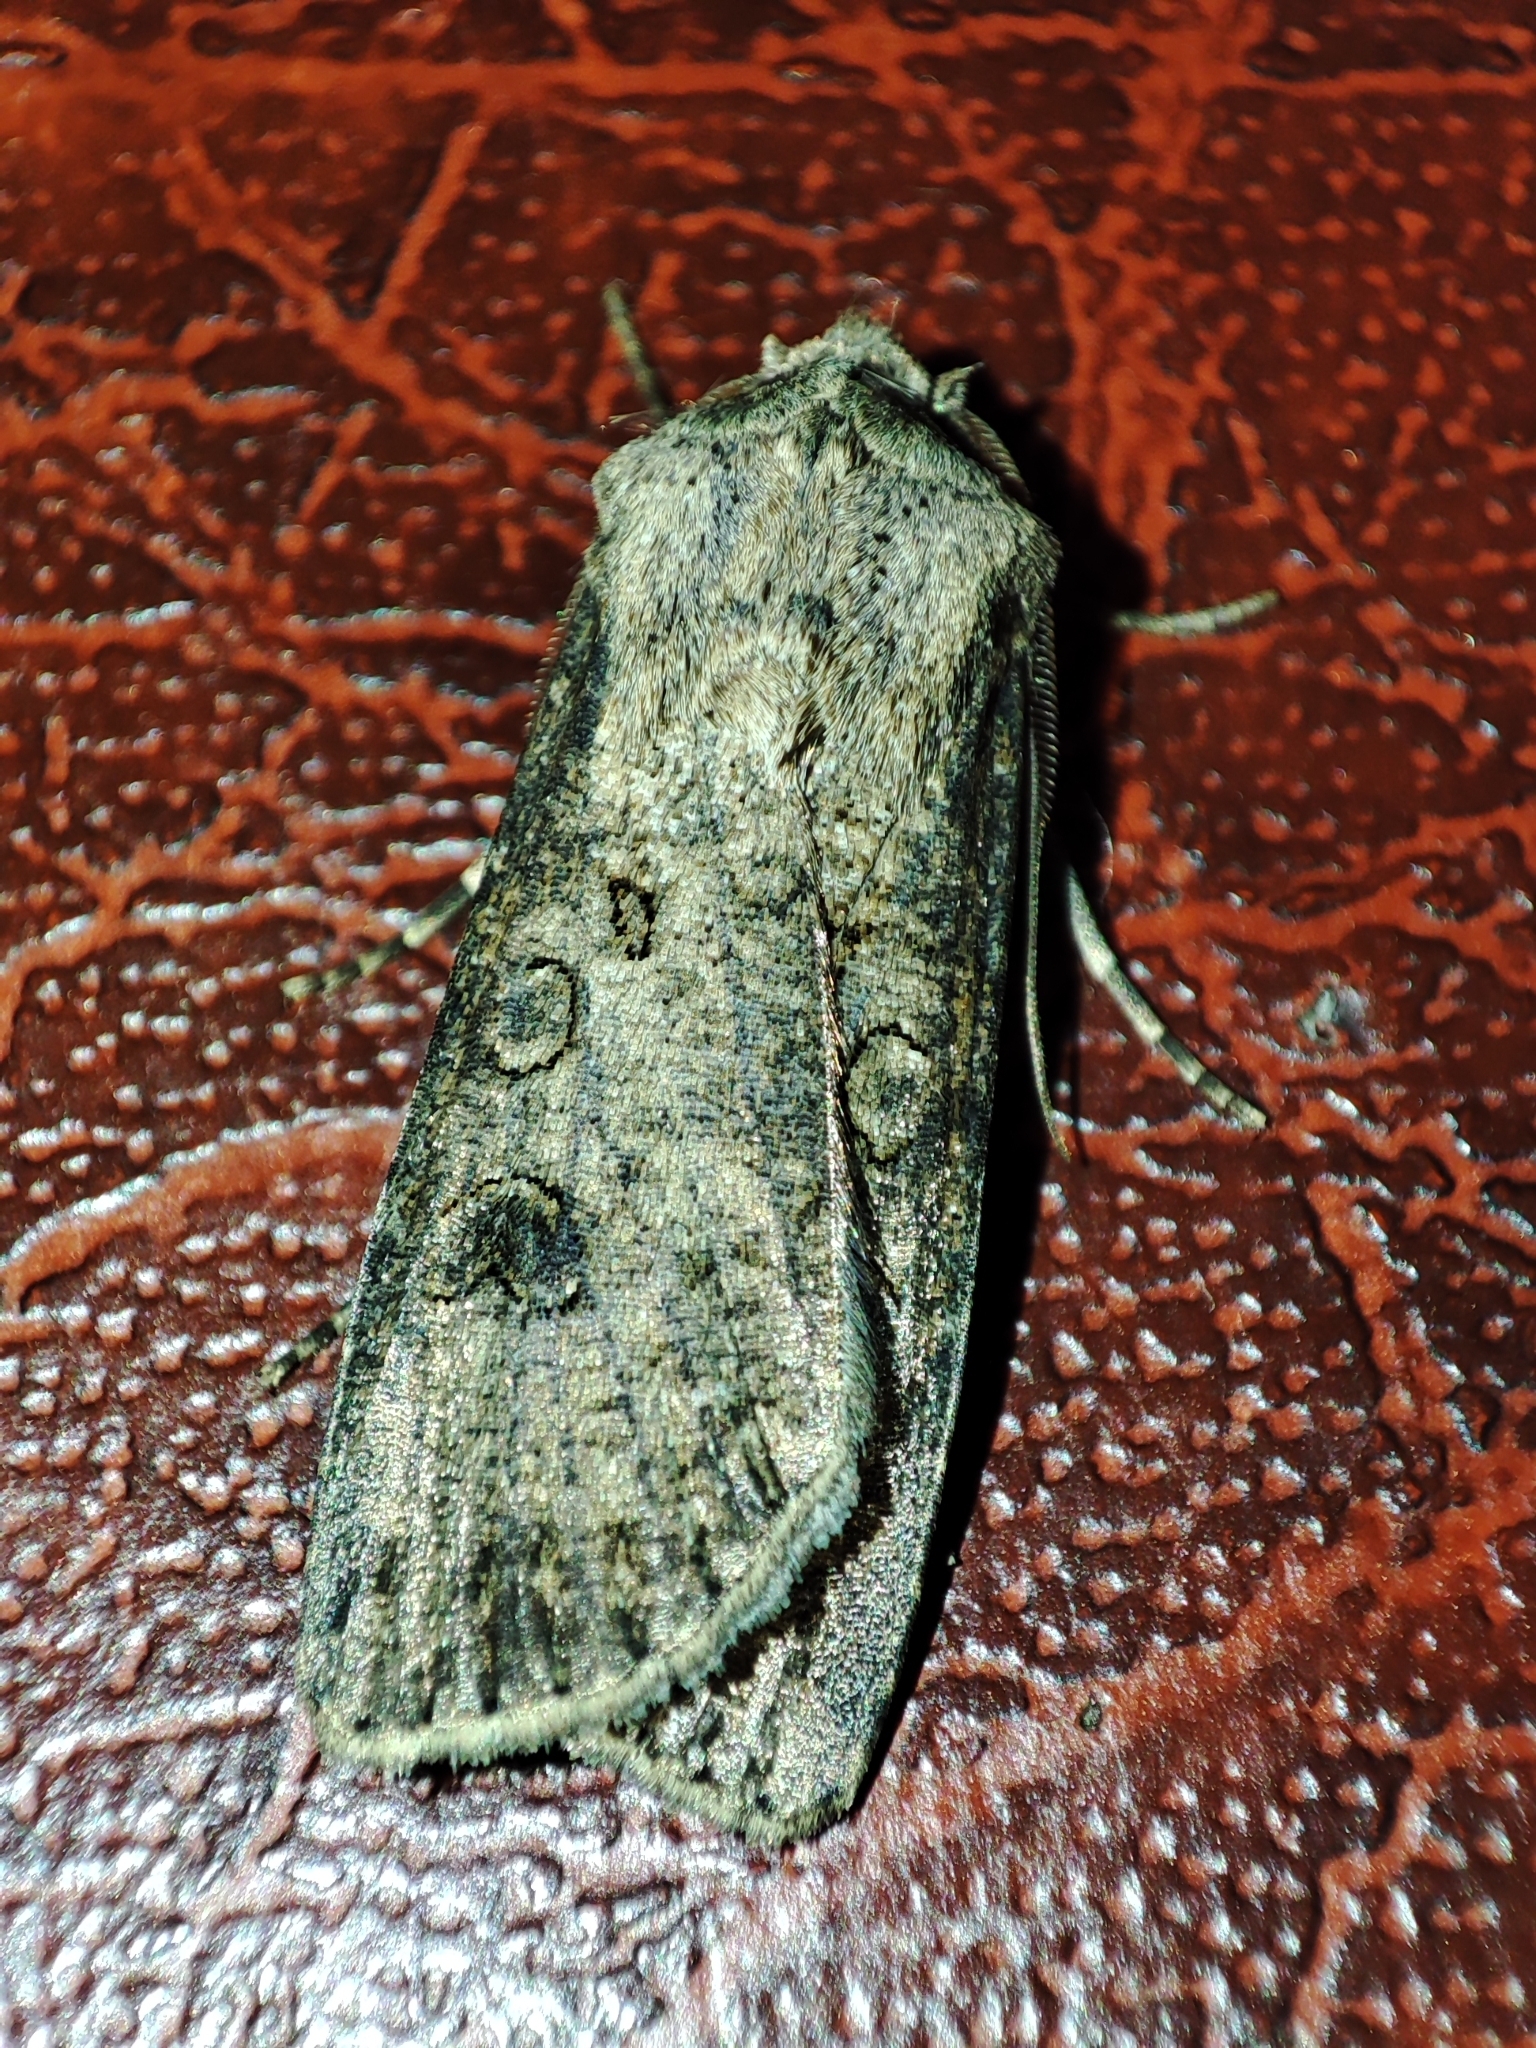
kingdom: Animalia
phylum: Arthropoda
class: Insecta
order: Lepidoptera
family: Noctuidae
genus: Agrotis
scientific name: Agrotis segetum
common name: Turnip moth
